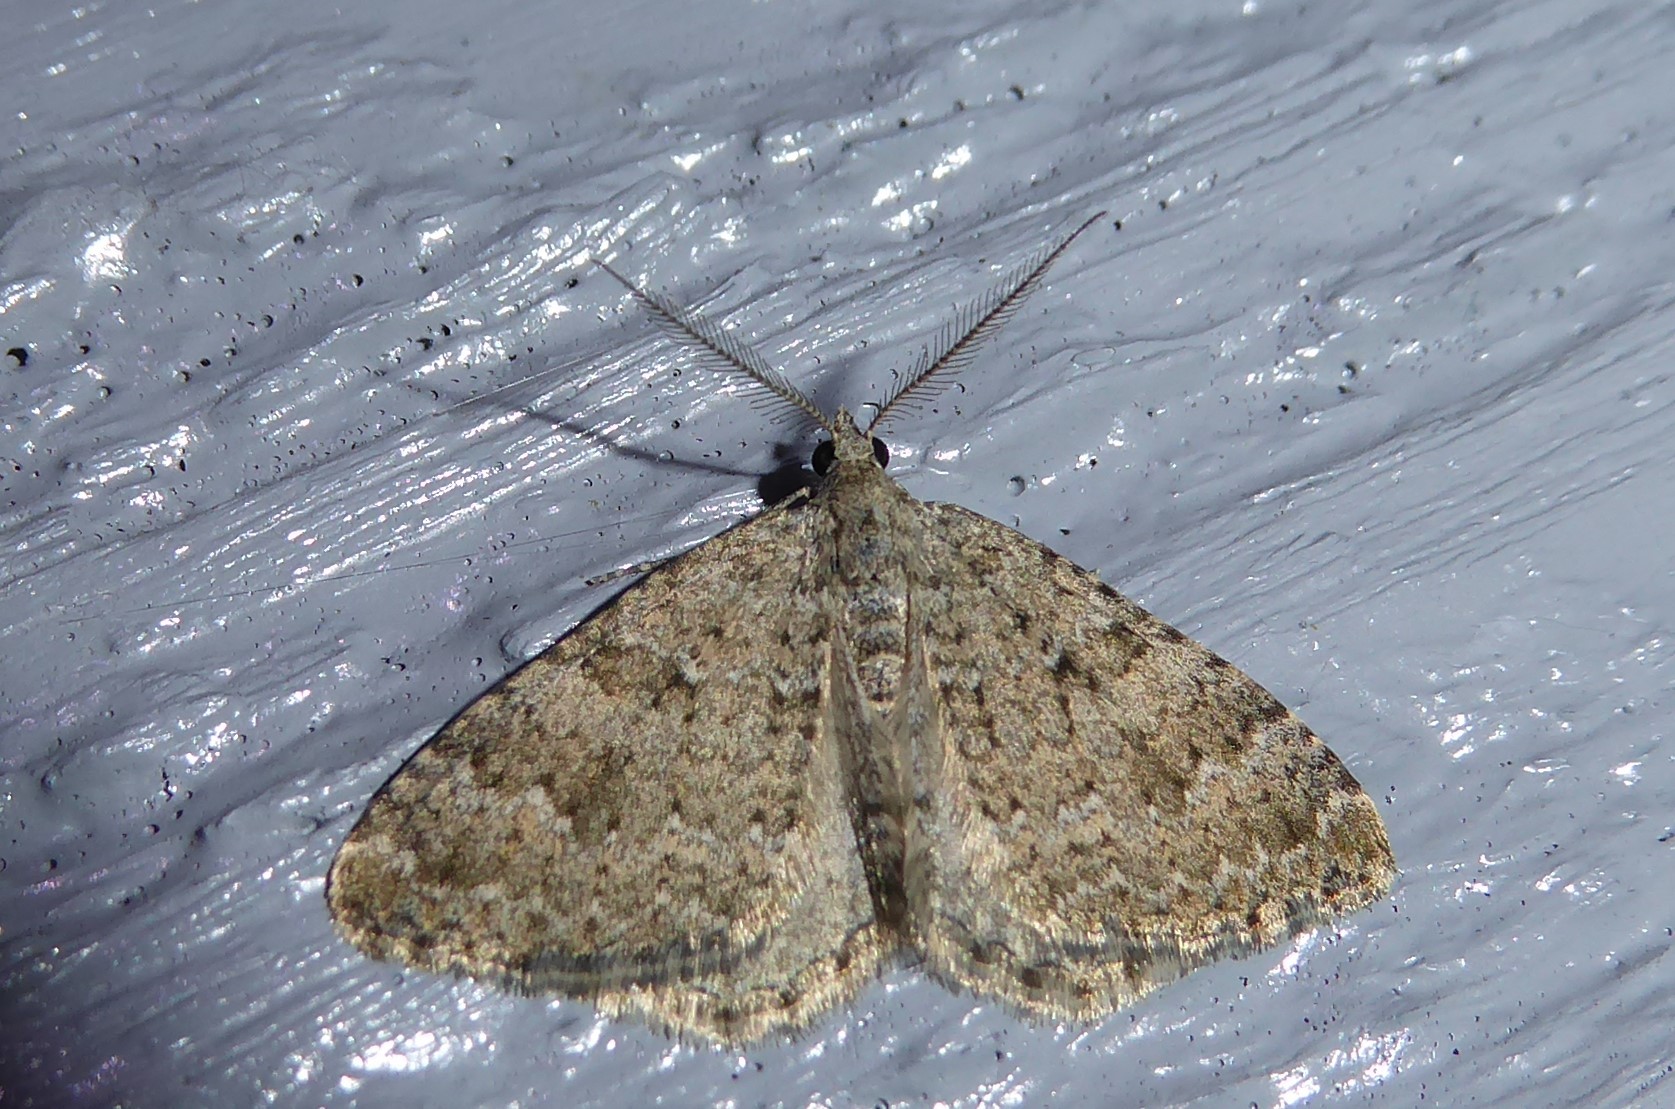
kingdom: Animalia
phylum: Arthropoda
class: Insecta
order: Lepidoptera
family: Geometridae
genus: Helastia
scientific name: Helastia corcularia
